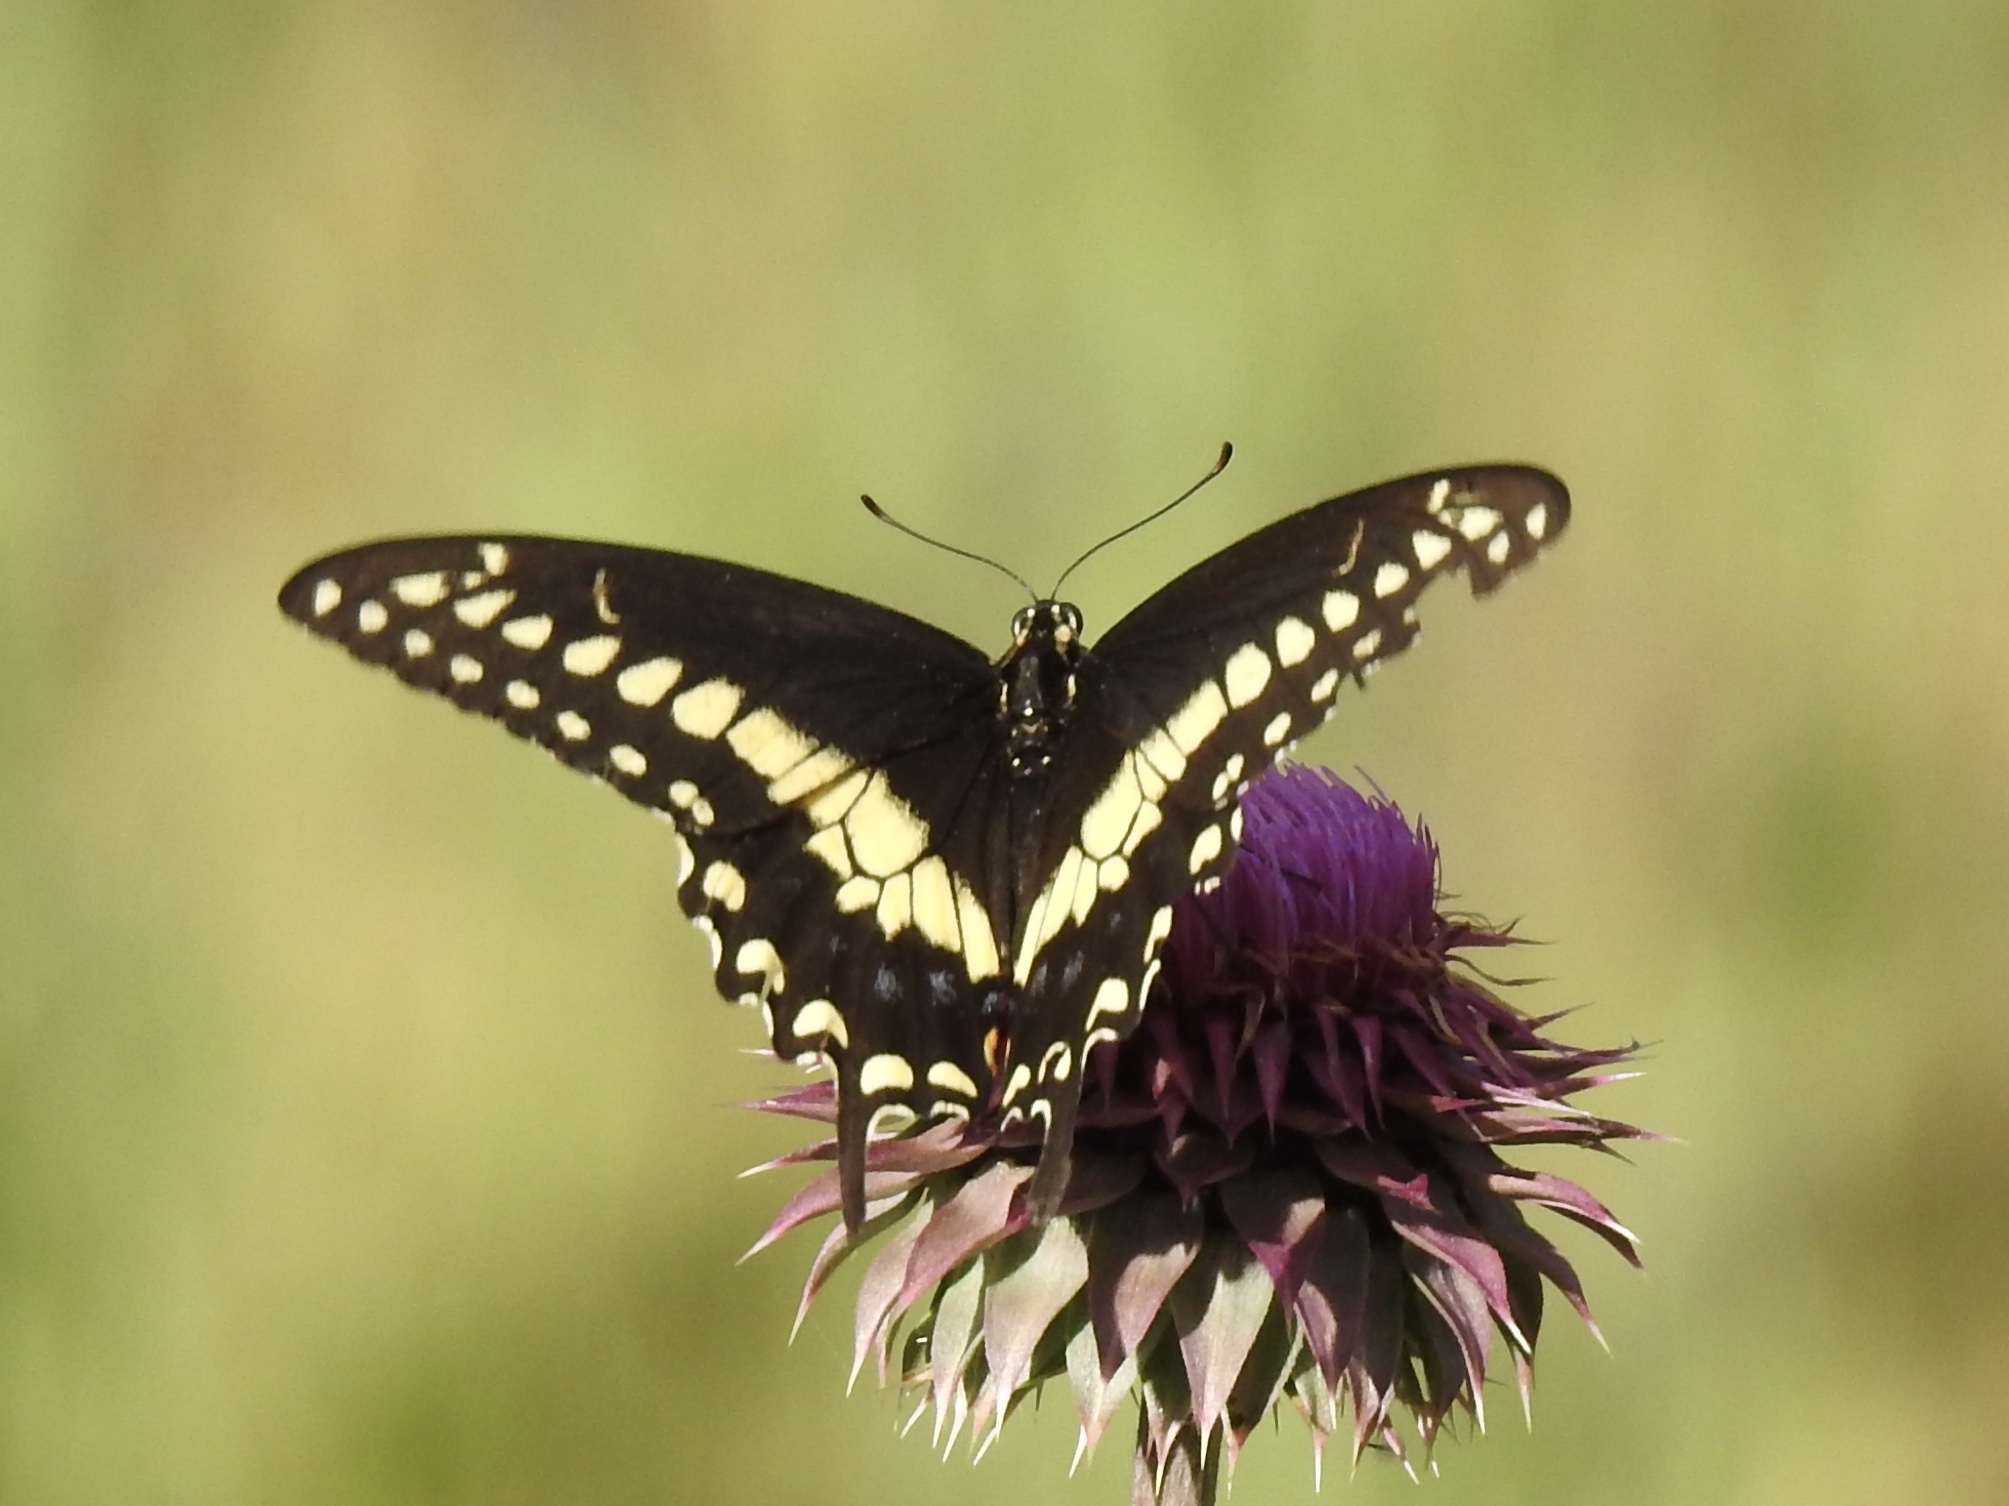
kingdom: Animalia
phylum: Arthropoda
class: Insecta
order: Lepidoptera
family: Papilionidae
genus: Papilio
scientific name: Papilio polyxenes
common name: Black swallowtail
